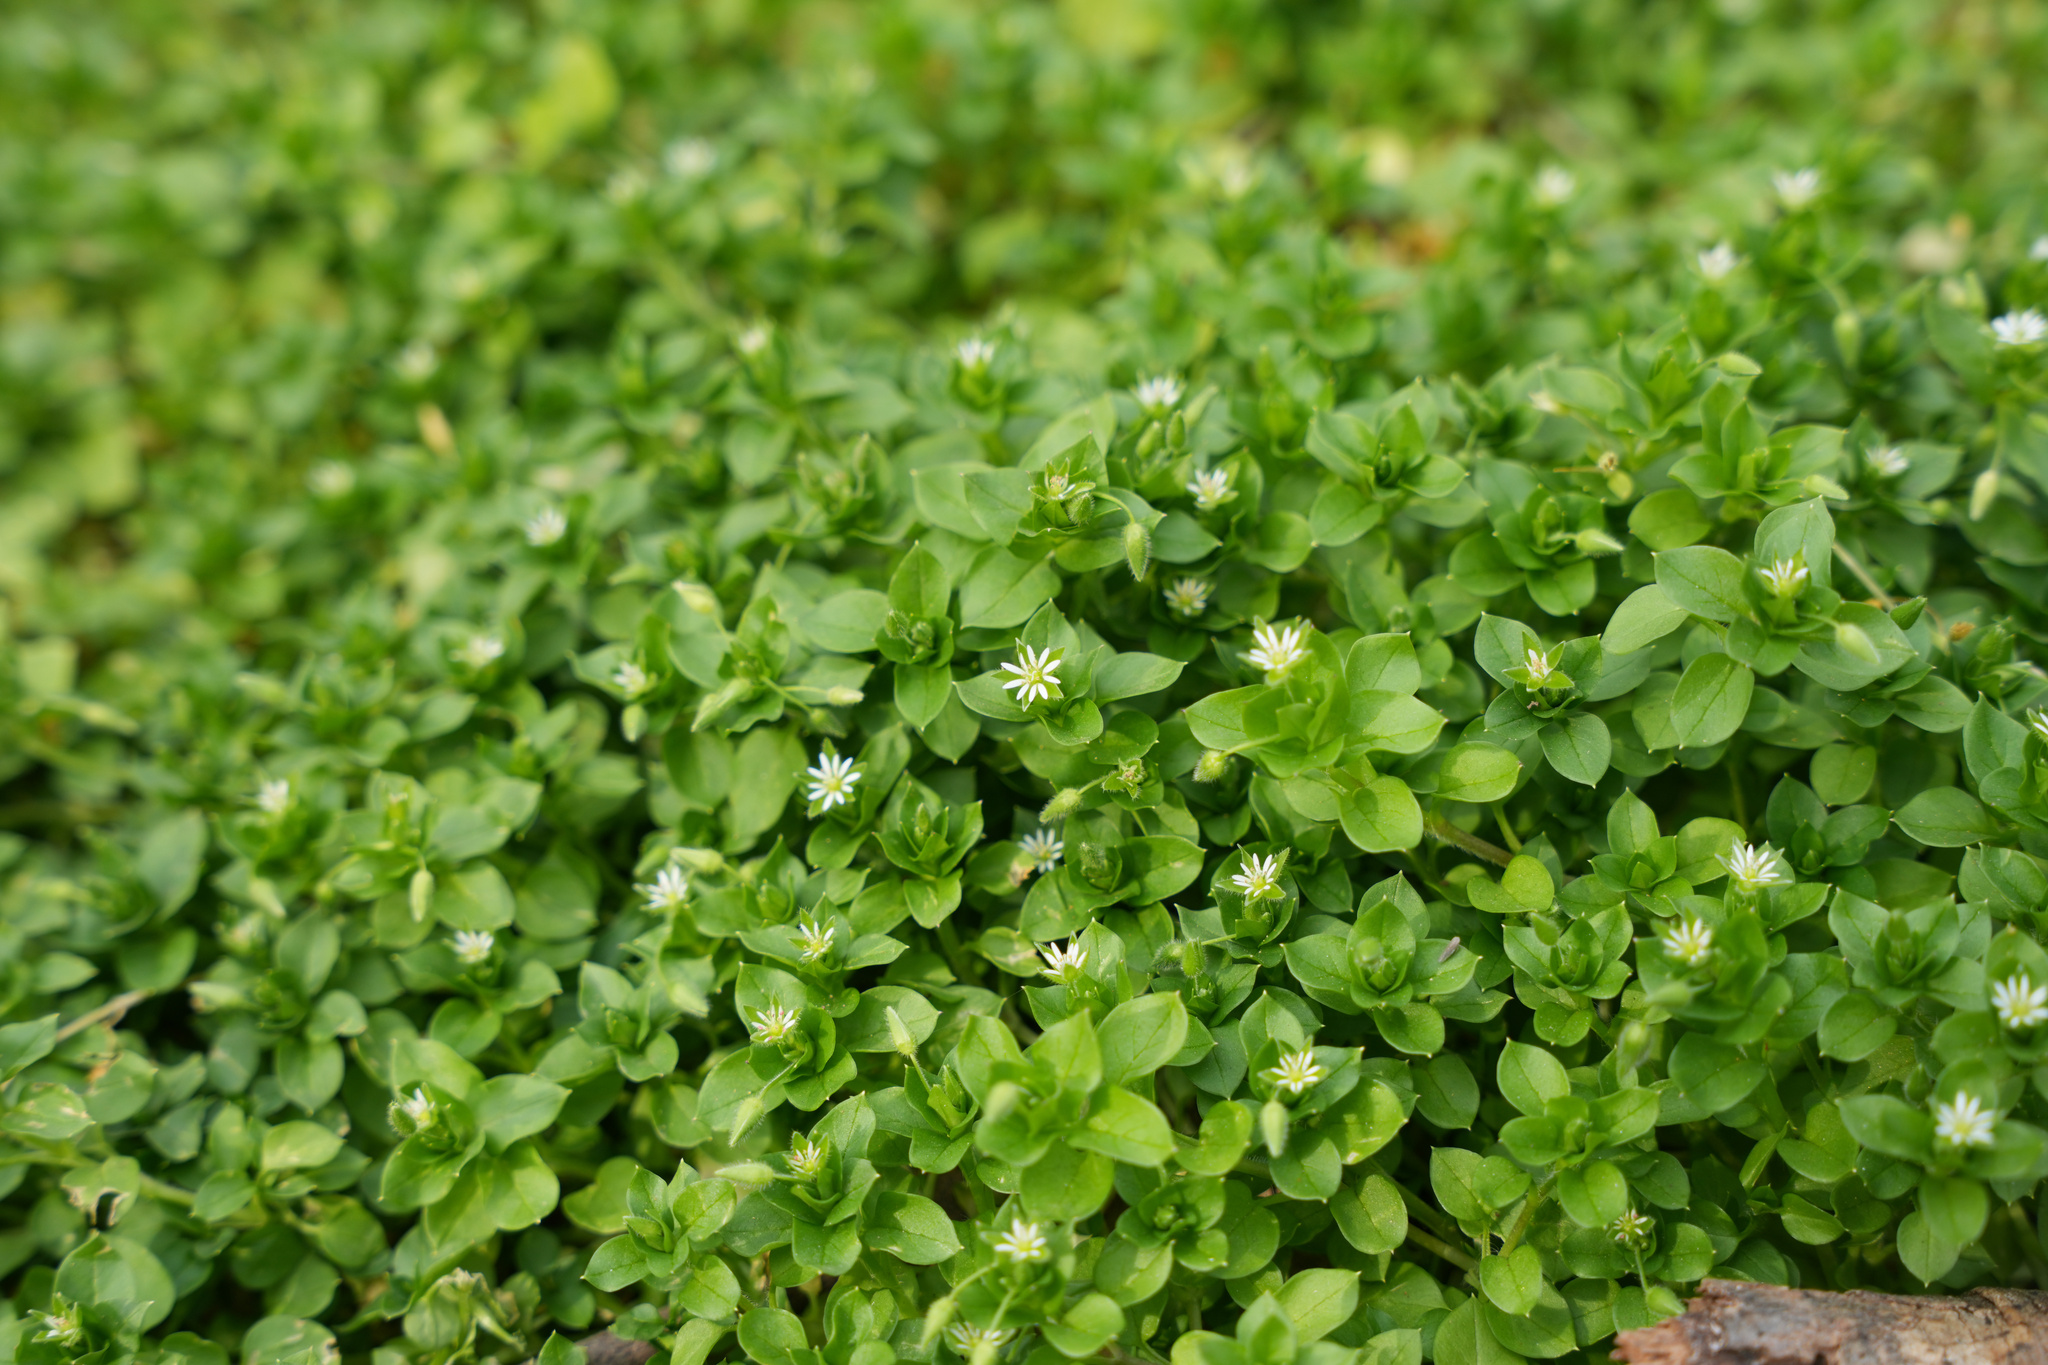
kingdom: Plantae
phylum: Tracheophyta
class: Magnoliopsida
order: Caryophyllales
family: Caryophyllaceae
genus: Stellaria
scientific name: Stellaria media
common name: Common chickweed
